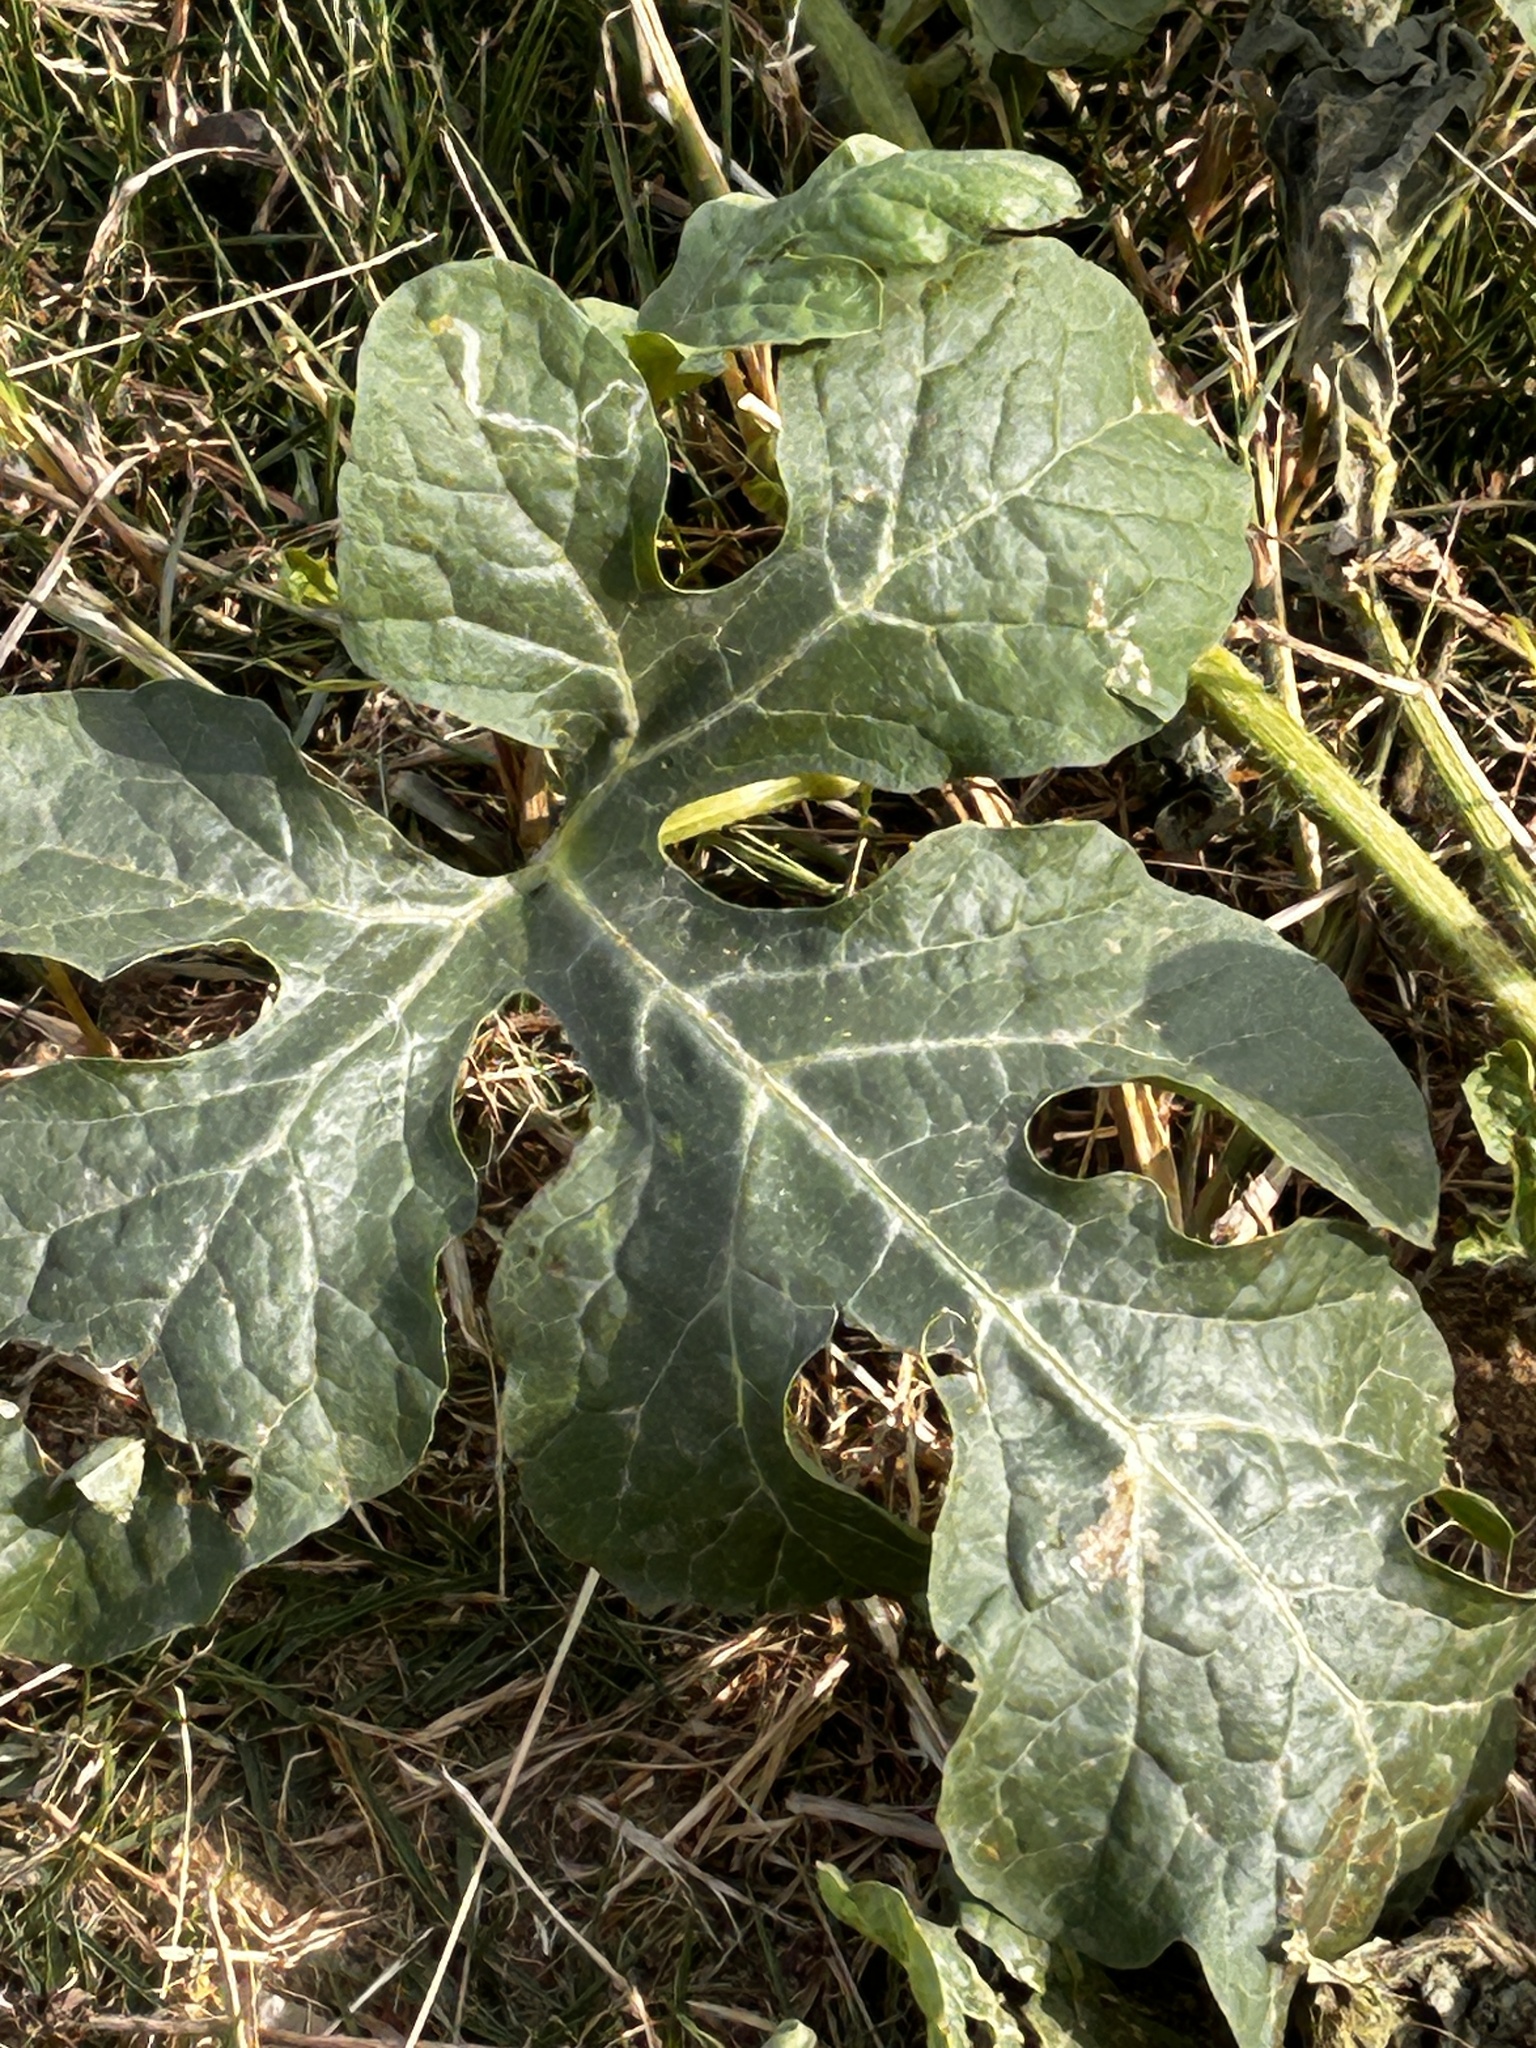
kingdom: Plantae
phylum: Tracheophyta
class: Magnoliopsida
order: Cucurbitales
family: Cucurbitaceae
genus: Citrullus
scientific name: Citrullus lanatus
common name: Watermelon
